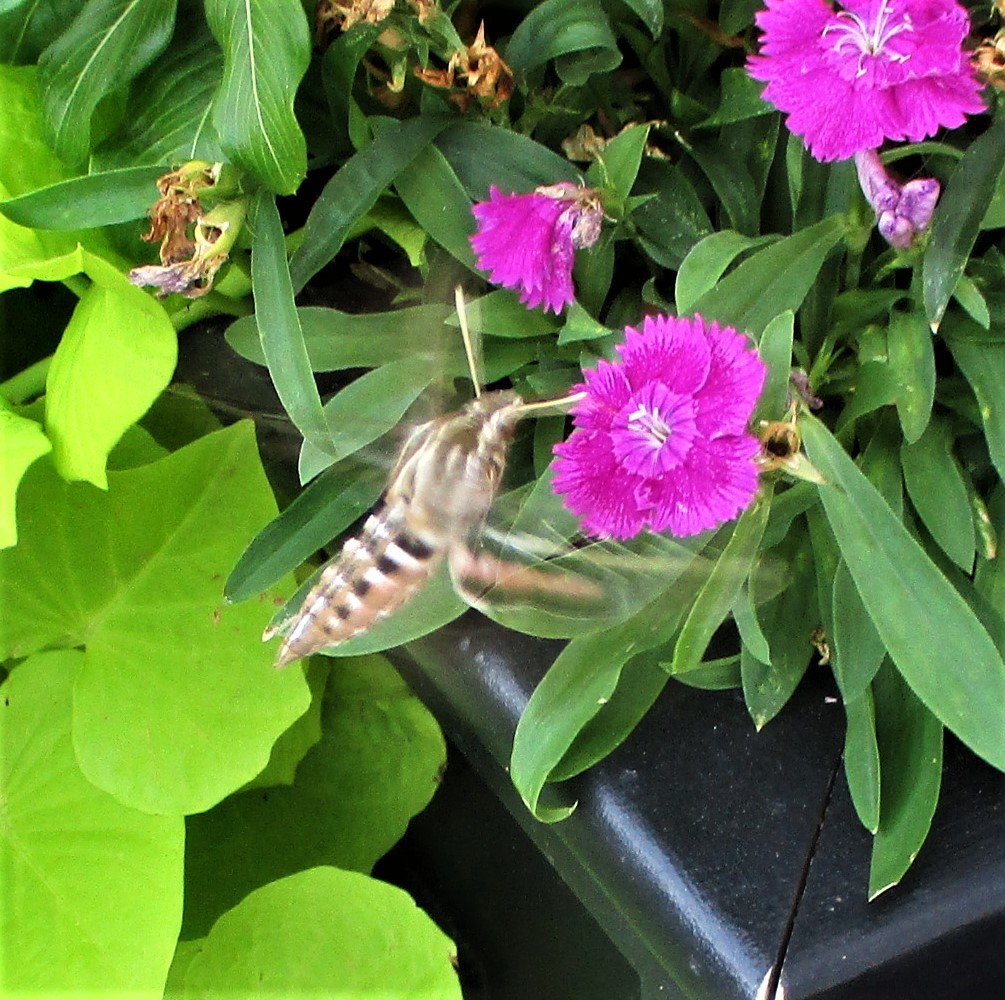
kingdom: Animalia
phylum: Arthropoda
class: Insecta
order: Lepidoptera
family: Sphingidae
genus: Hyles
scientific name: Hyles lineata
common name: White-lined sphinx
